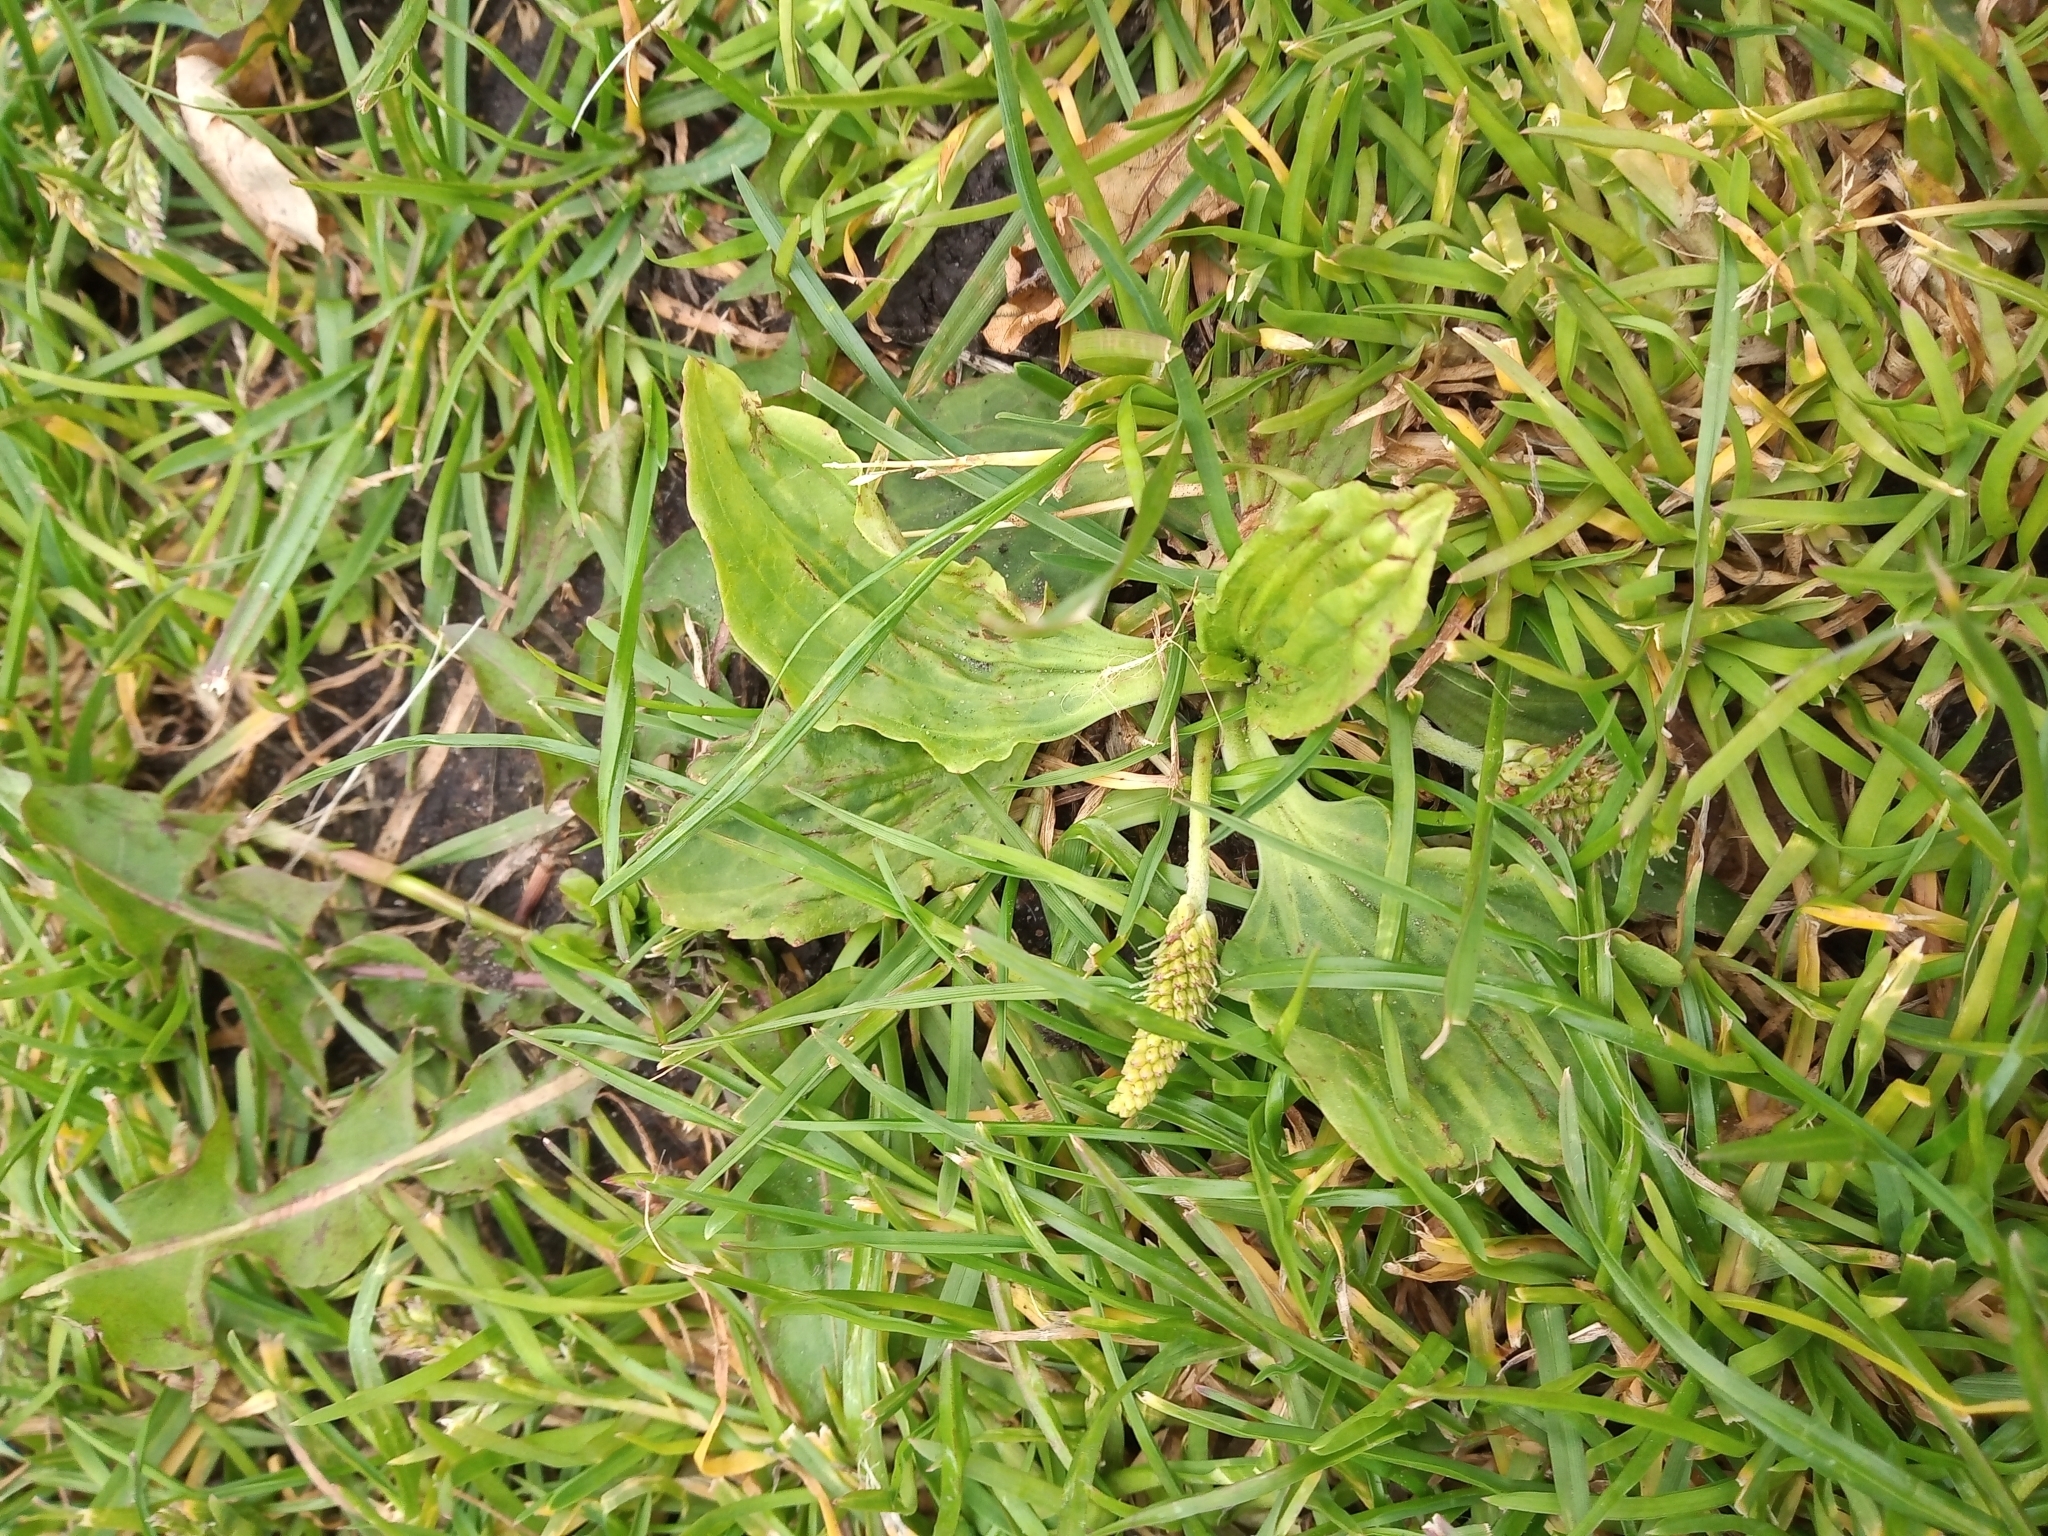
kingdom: Plantae
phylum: Tracheophyta
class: Magnoliopsida
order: Lamiales
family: Plantaginaceae
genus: Plantago
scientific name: Plantago major
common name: Common plantain
